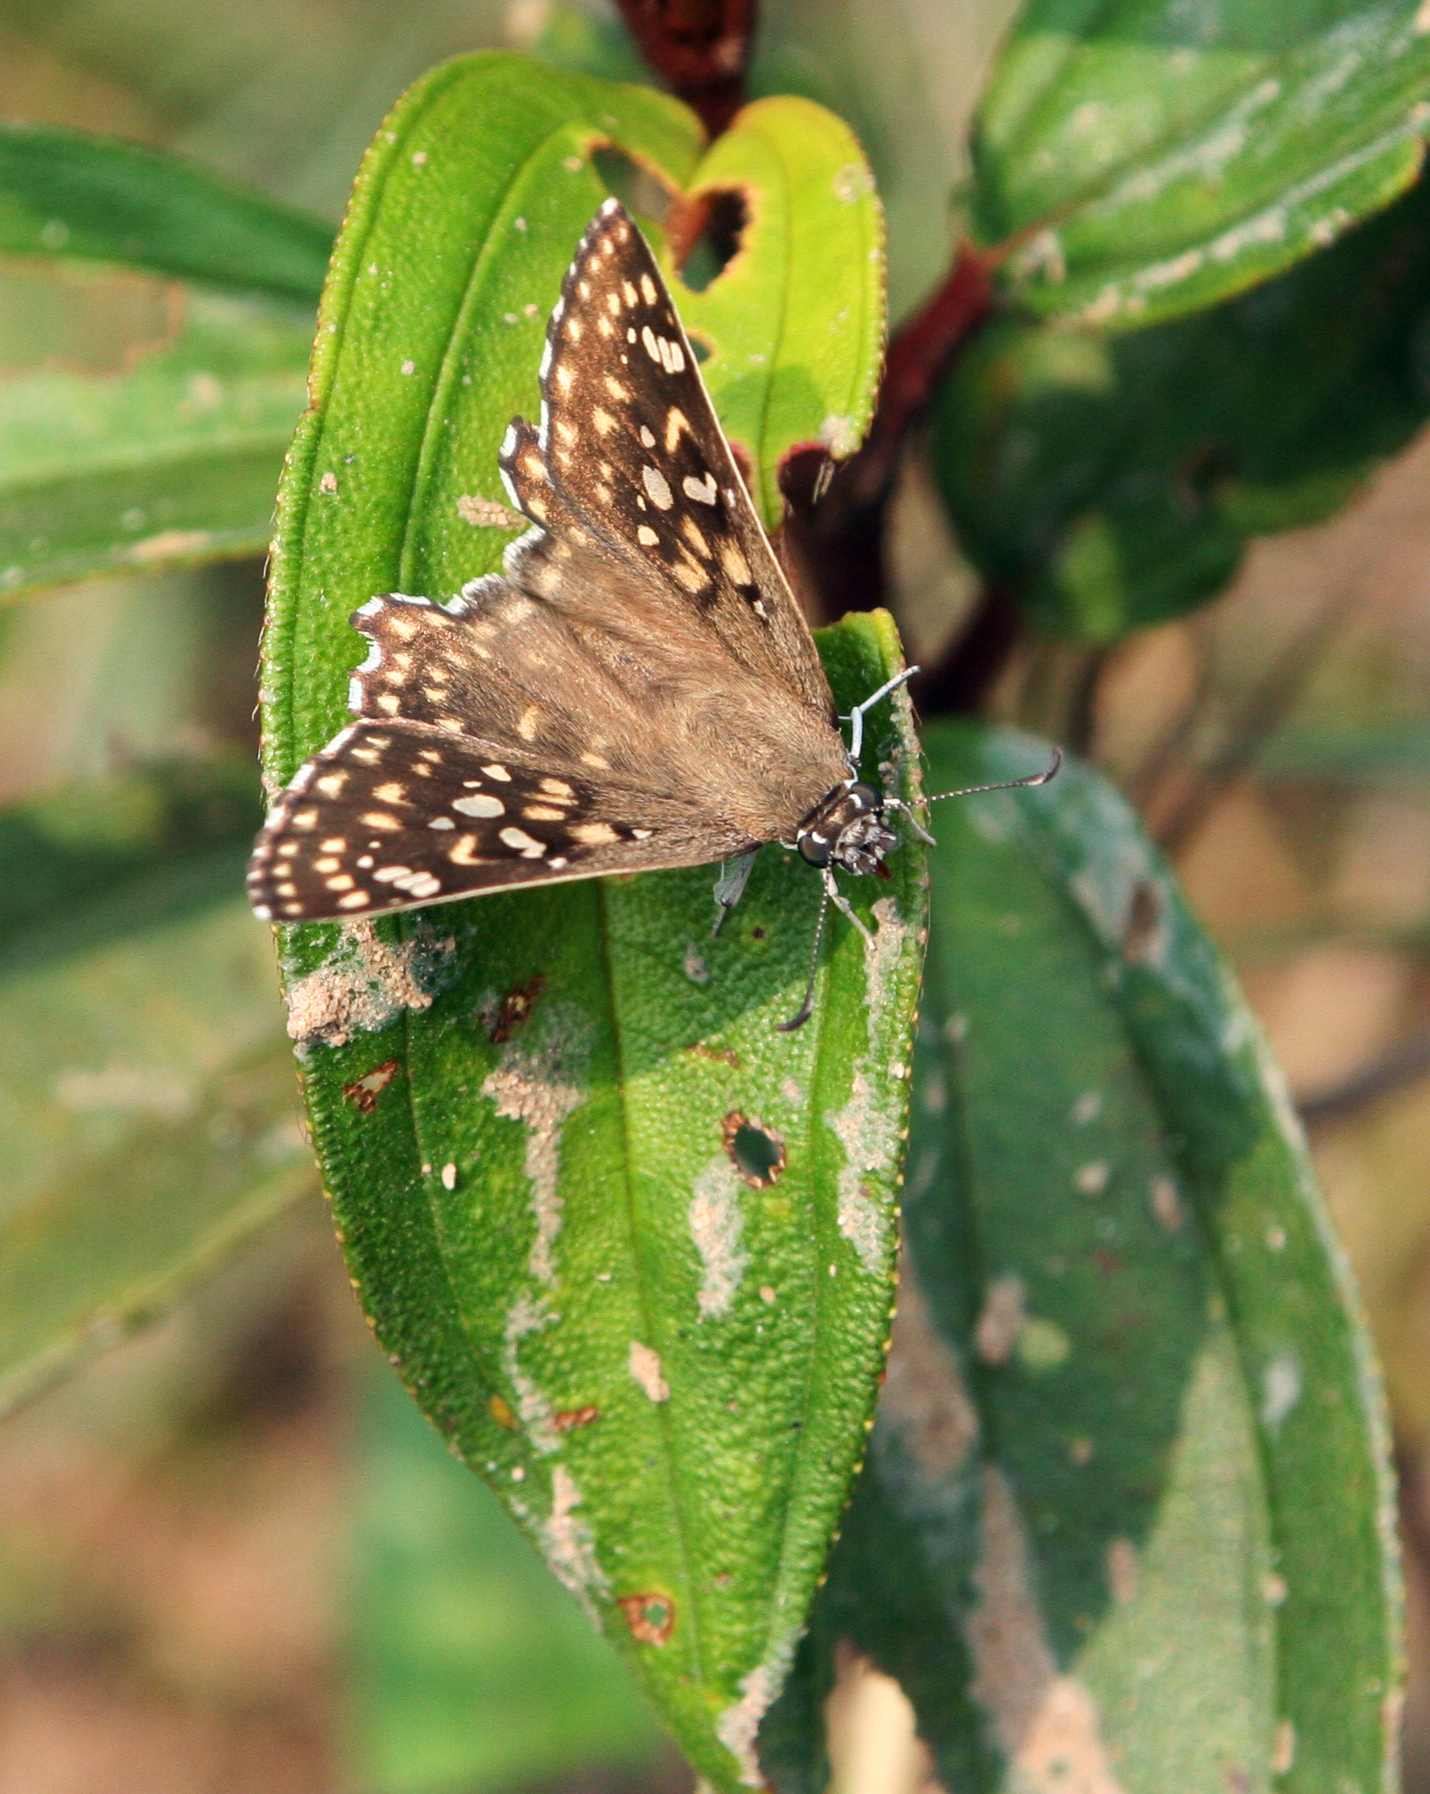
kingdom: Animalia
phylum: Arthropoda
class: Insecta
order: Lepidoptera
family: Hesperiidae
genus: Caprona
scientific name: Caprona alida
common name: Spotted angle
